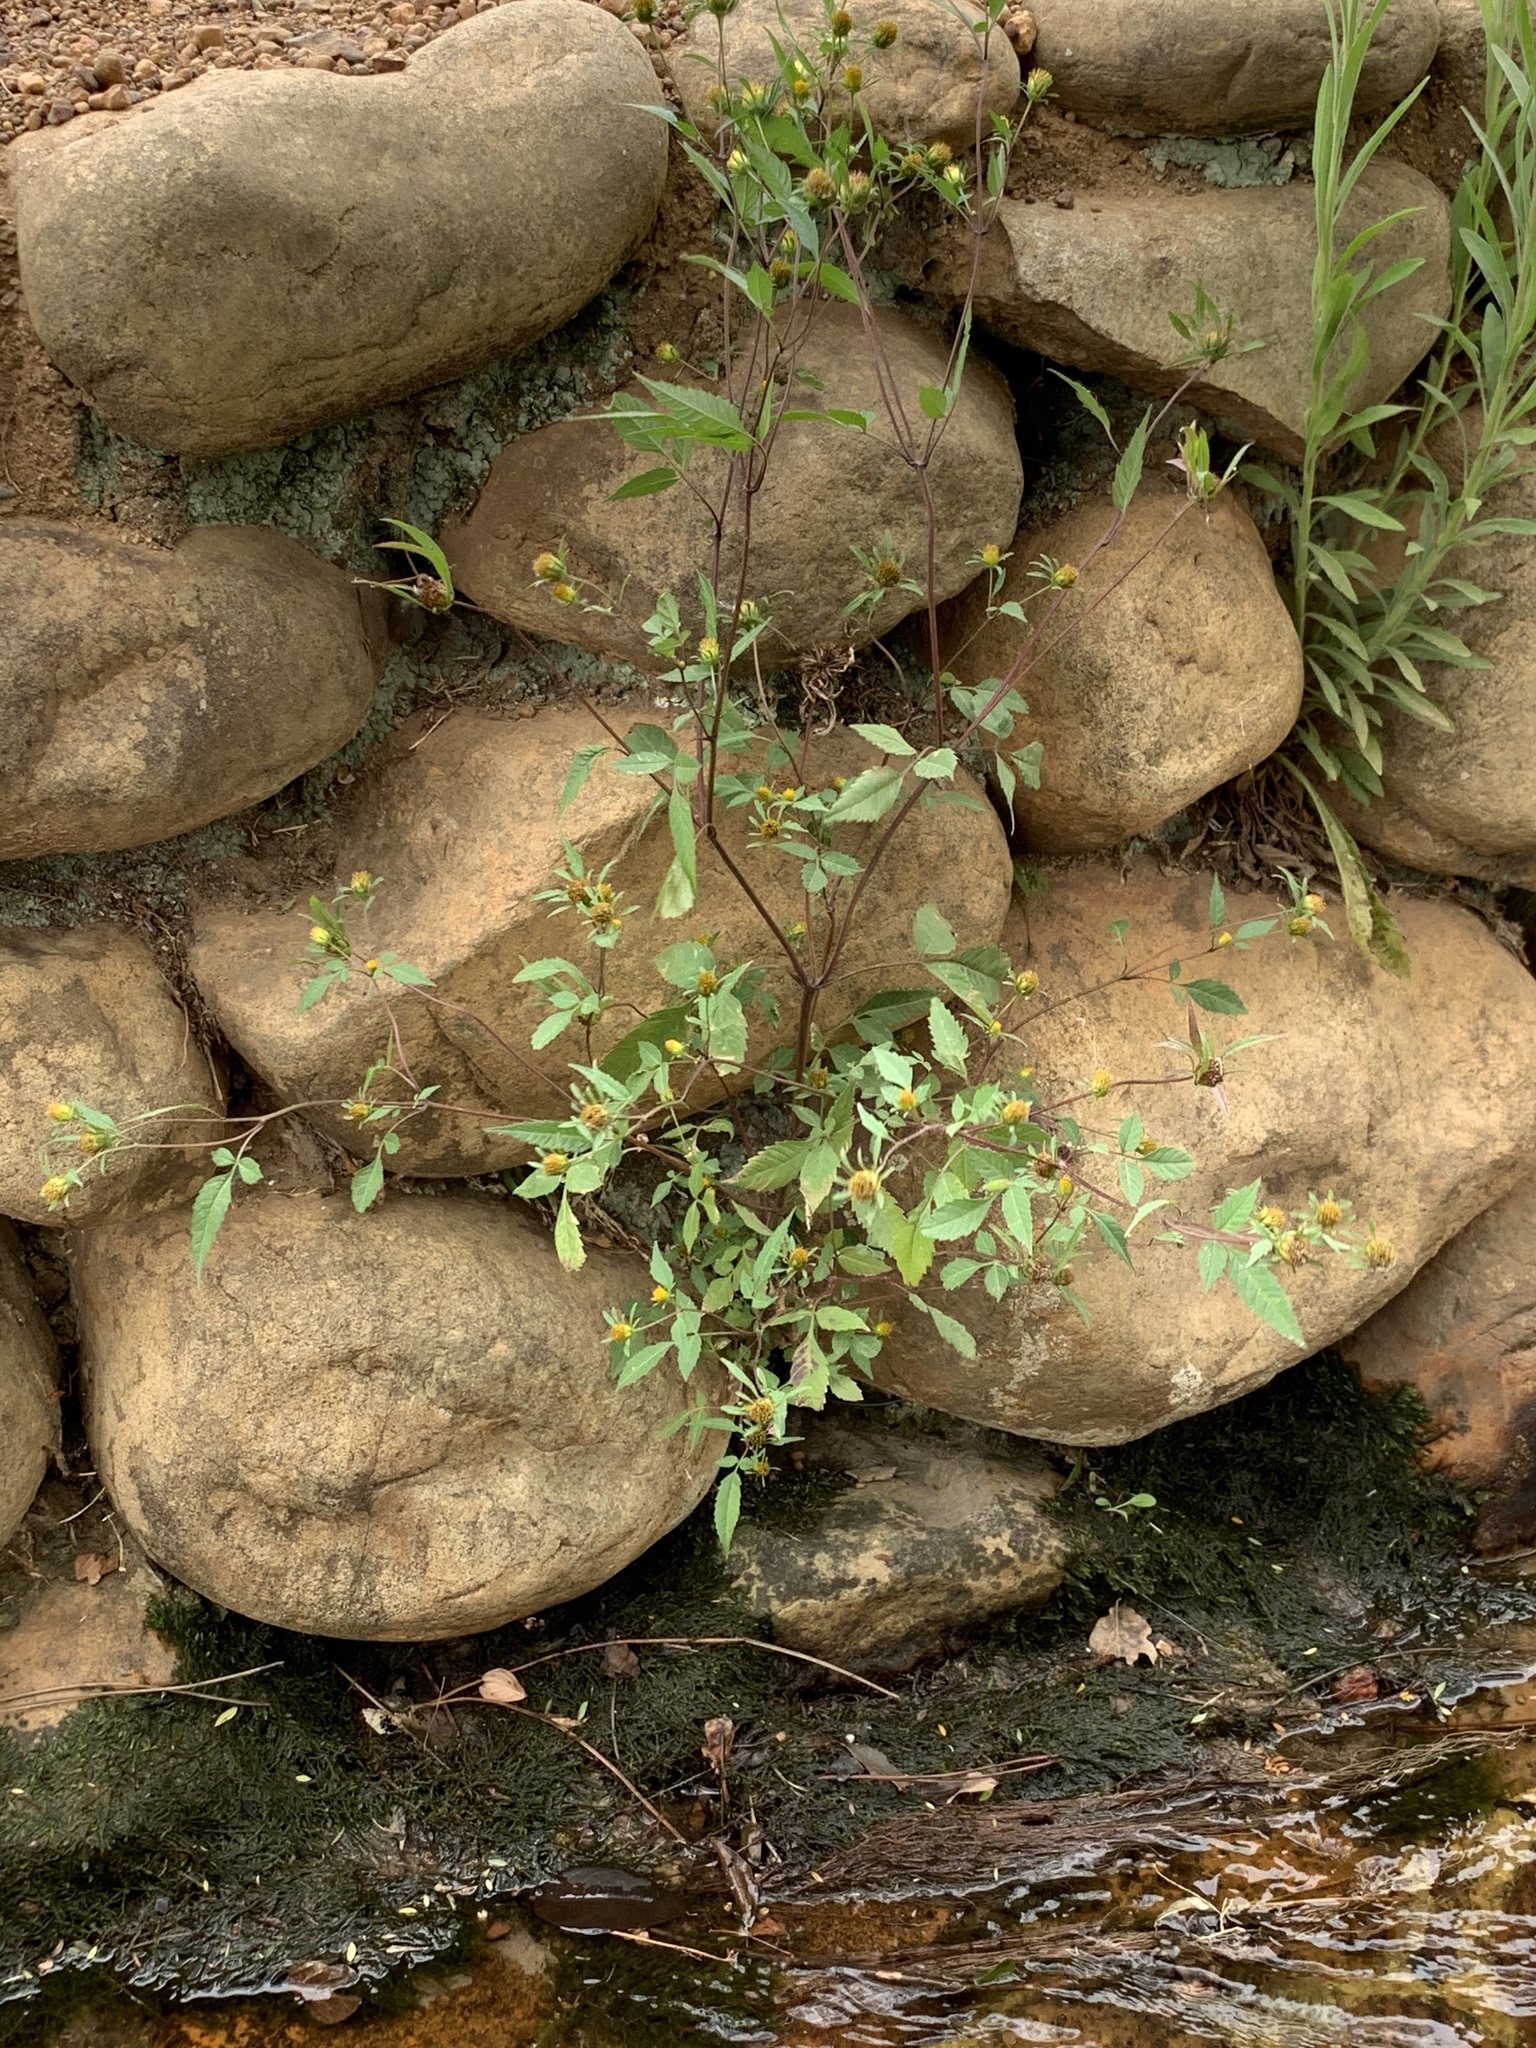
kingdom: Plantae
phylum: Tracheophyta
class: Magnoliopsida
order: Asterales
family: Asteraceae
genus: Bidens
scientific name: Bidens pilosa
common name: Black-jack
